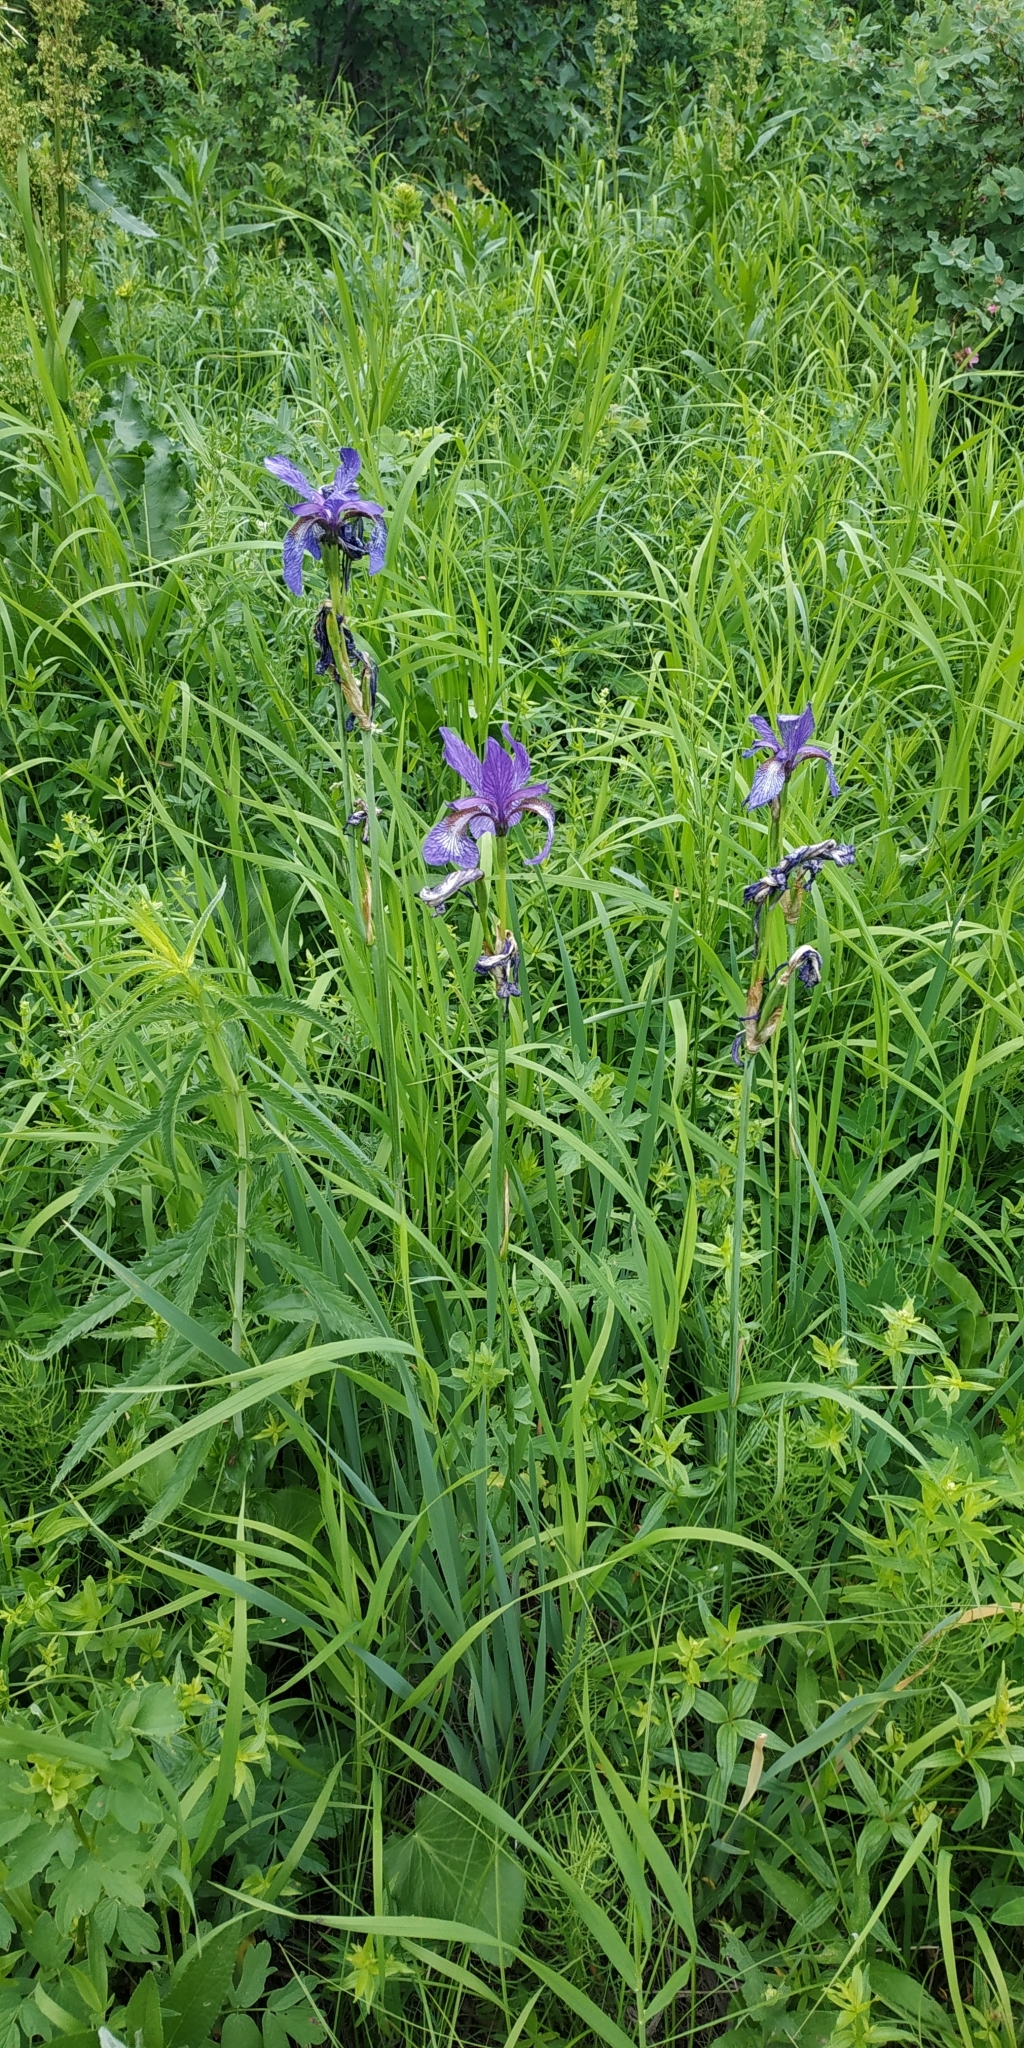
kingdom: Plantae
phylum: Tracheophyta
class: Liliopsida
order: Asparagales
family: Iridaceae
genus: Iris
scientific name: Iris sibirica
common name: Siberian iris
